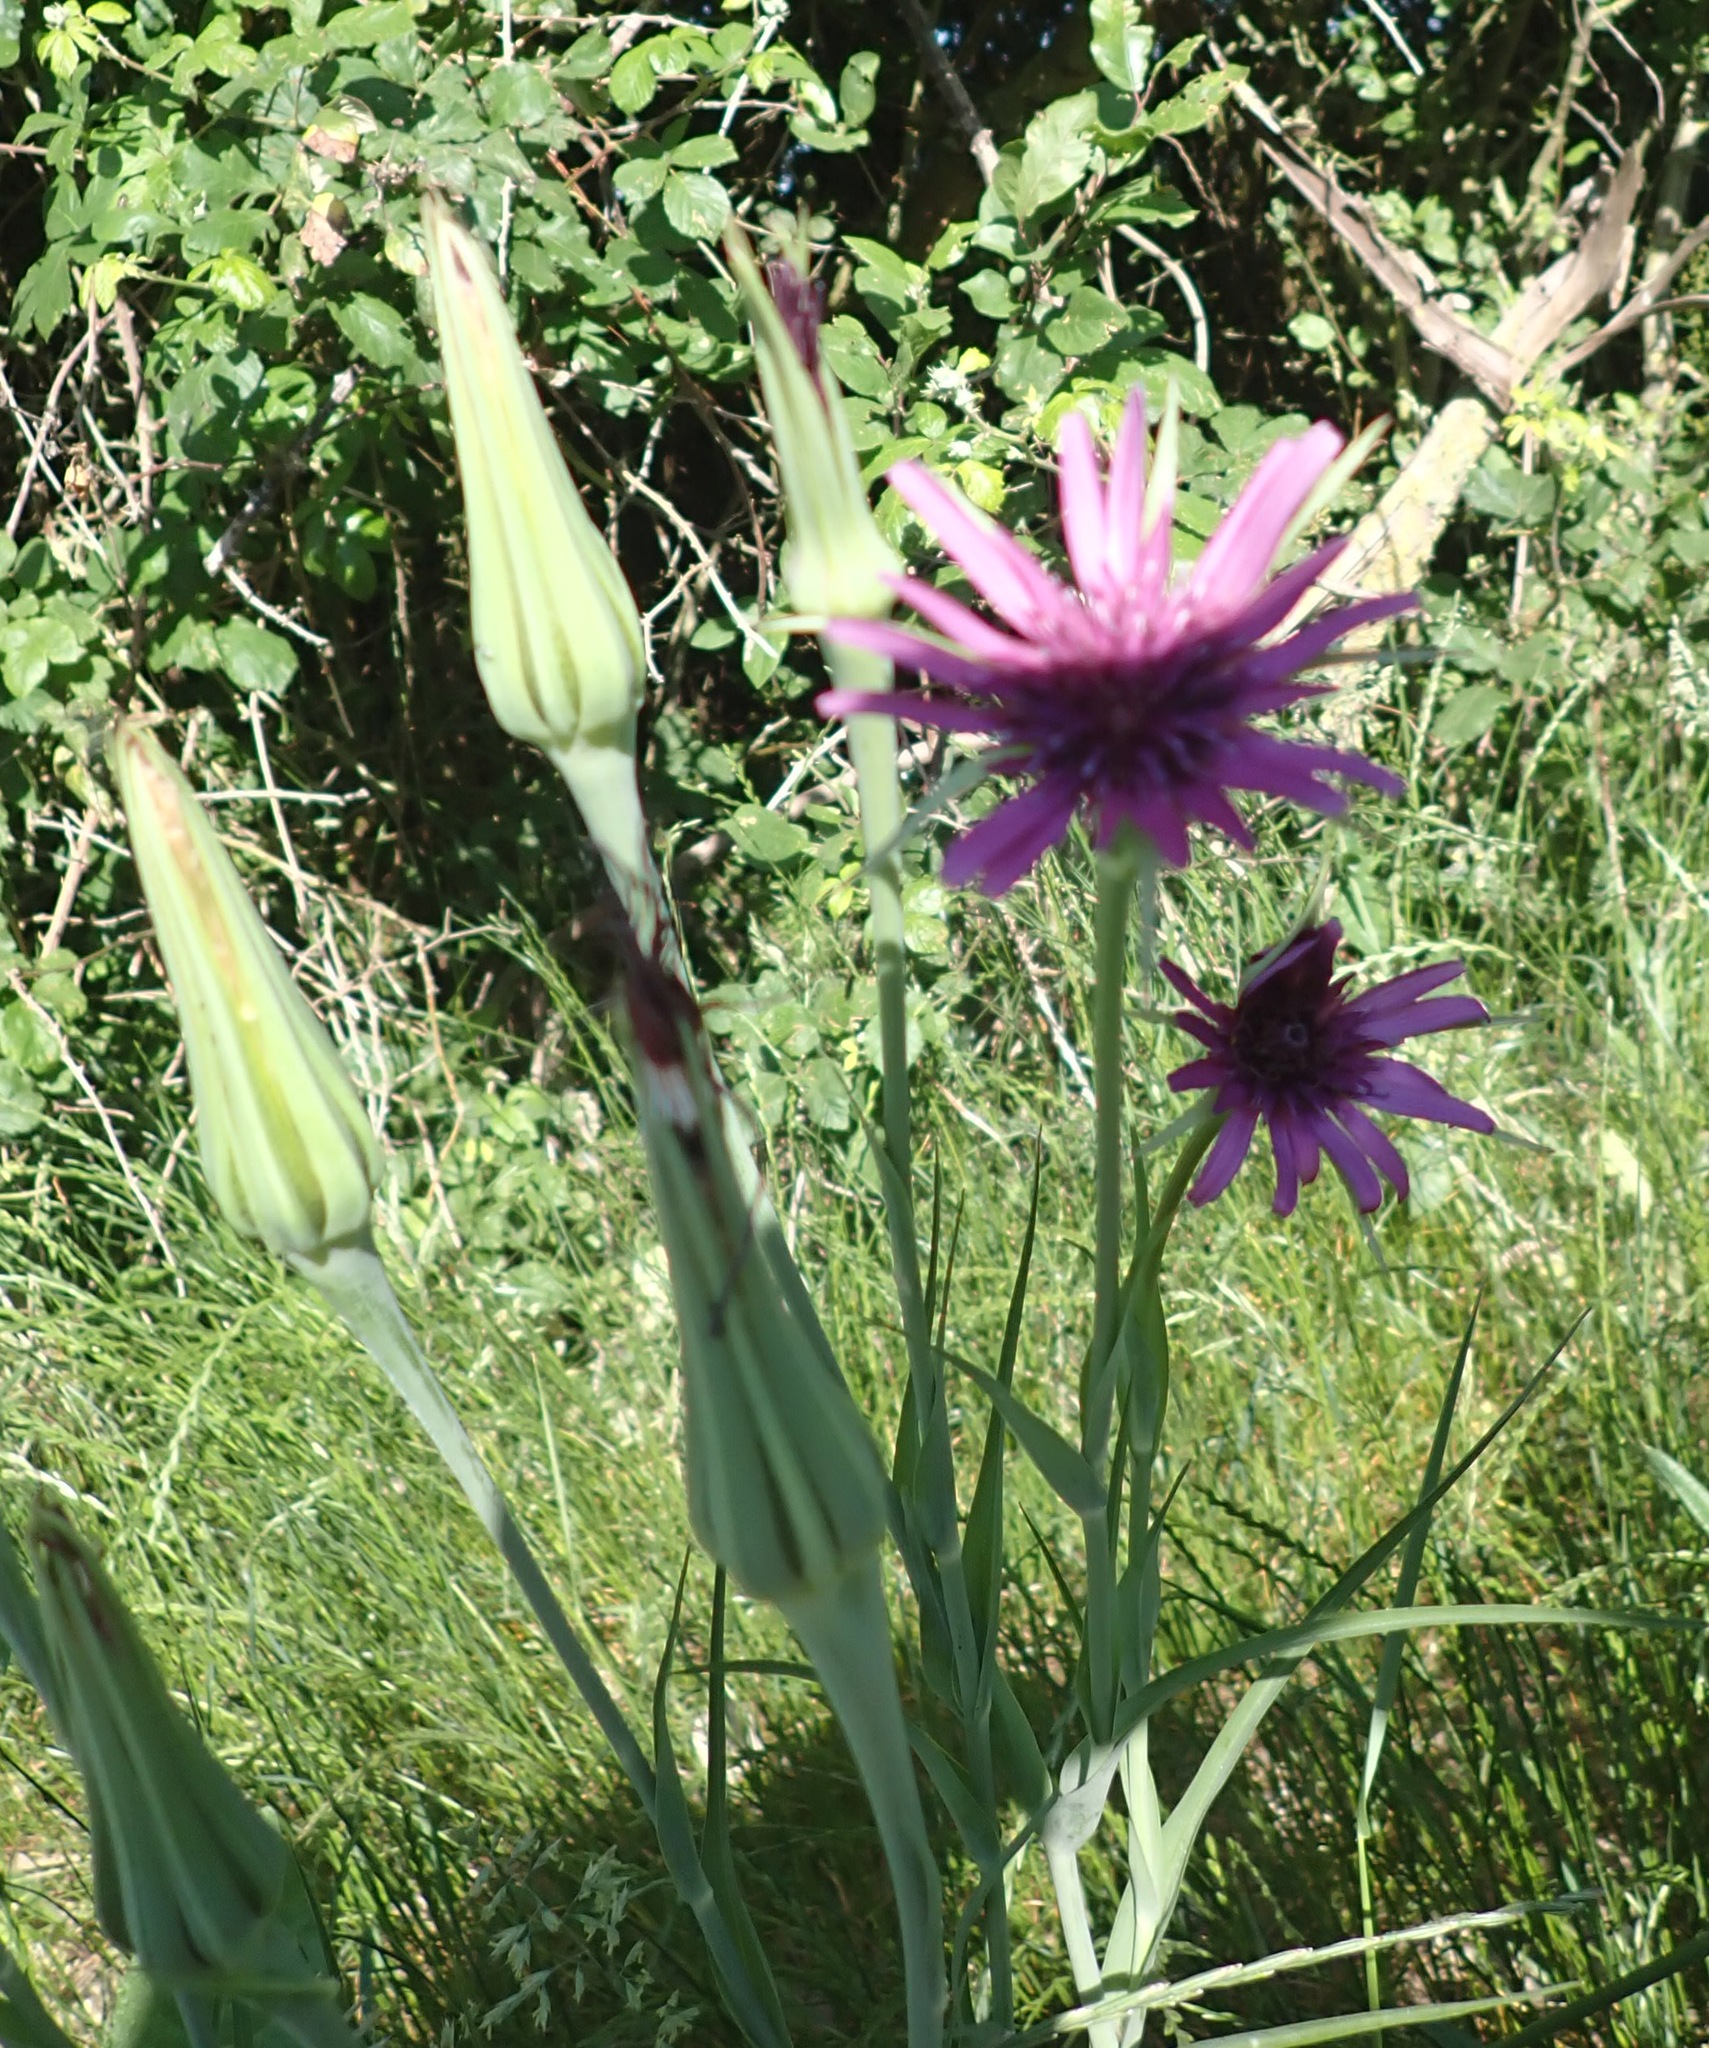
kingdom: Plantae
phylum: Tracheophyta
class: Magnoliopsida
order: Asterales
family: Asteraceae
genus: Tragopogon
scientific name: Tragopogon porrifolius
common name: Salsify
